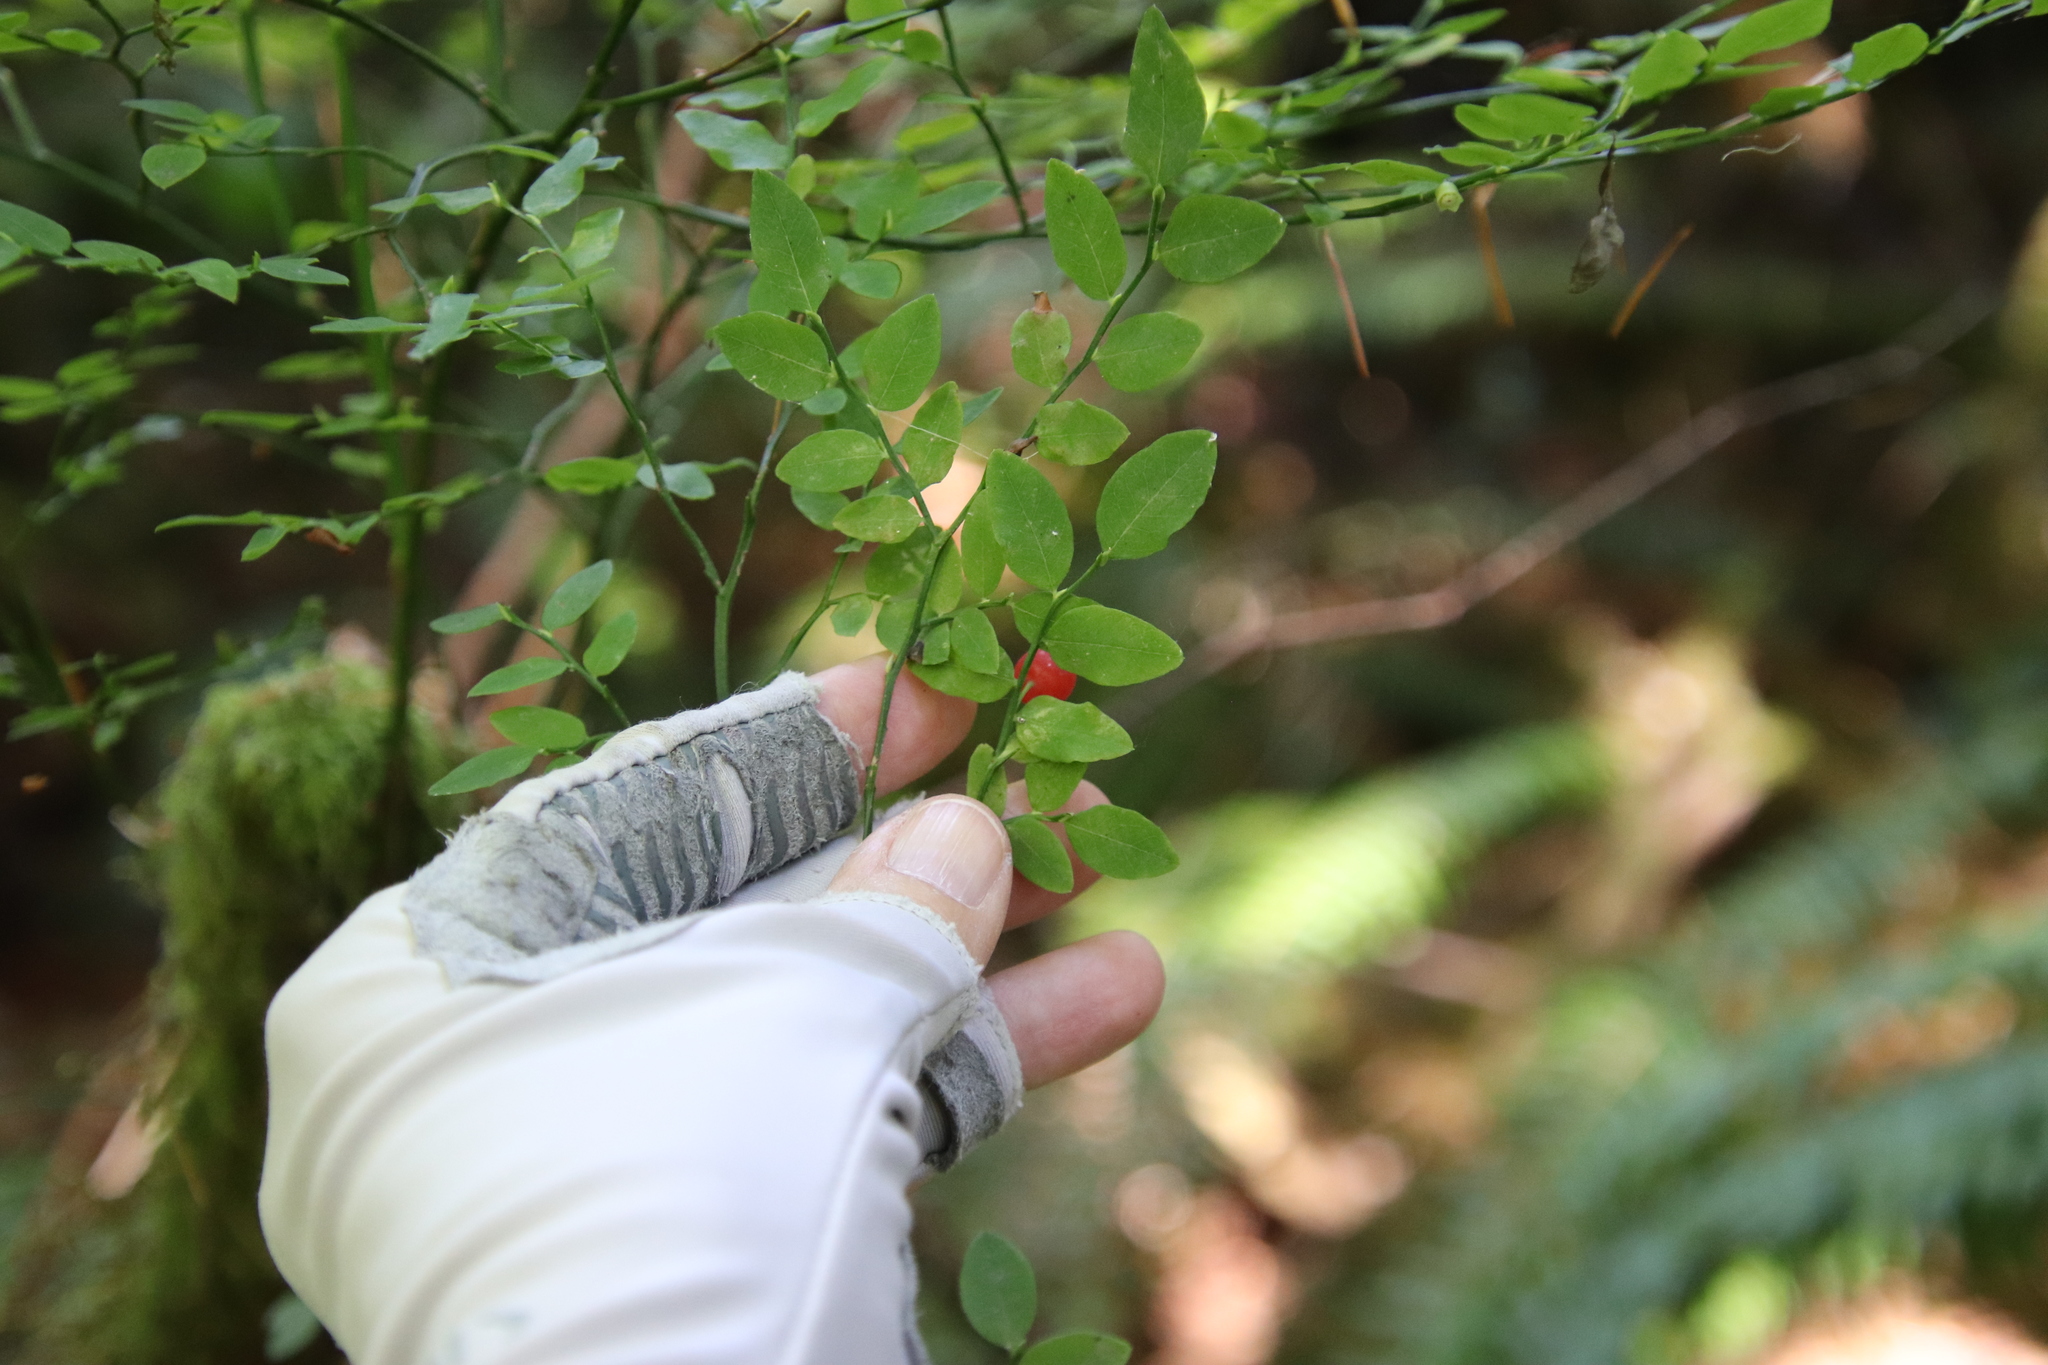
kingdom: Plantae
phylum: Tracheophyta
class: Magnoliopsida
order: Ericales
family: Ericaceae
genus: Vaccinium
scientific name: Vaccinium parvifolium
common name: Red-huckleberry
